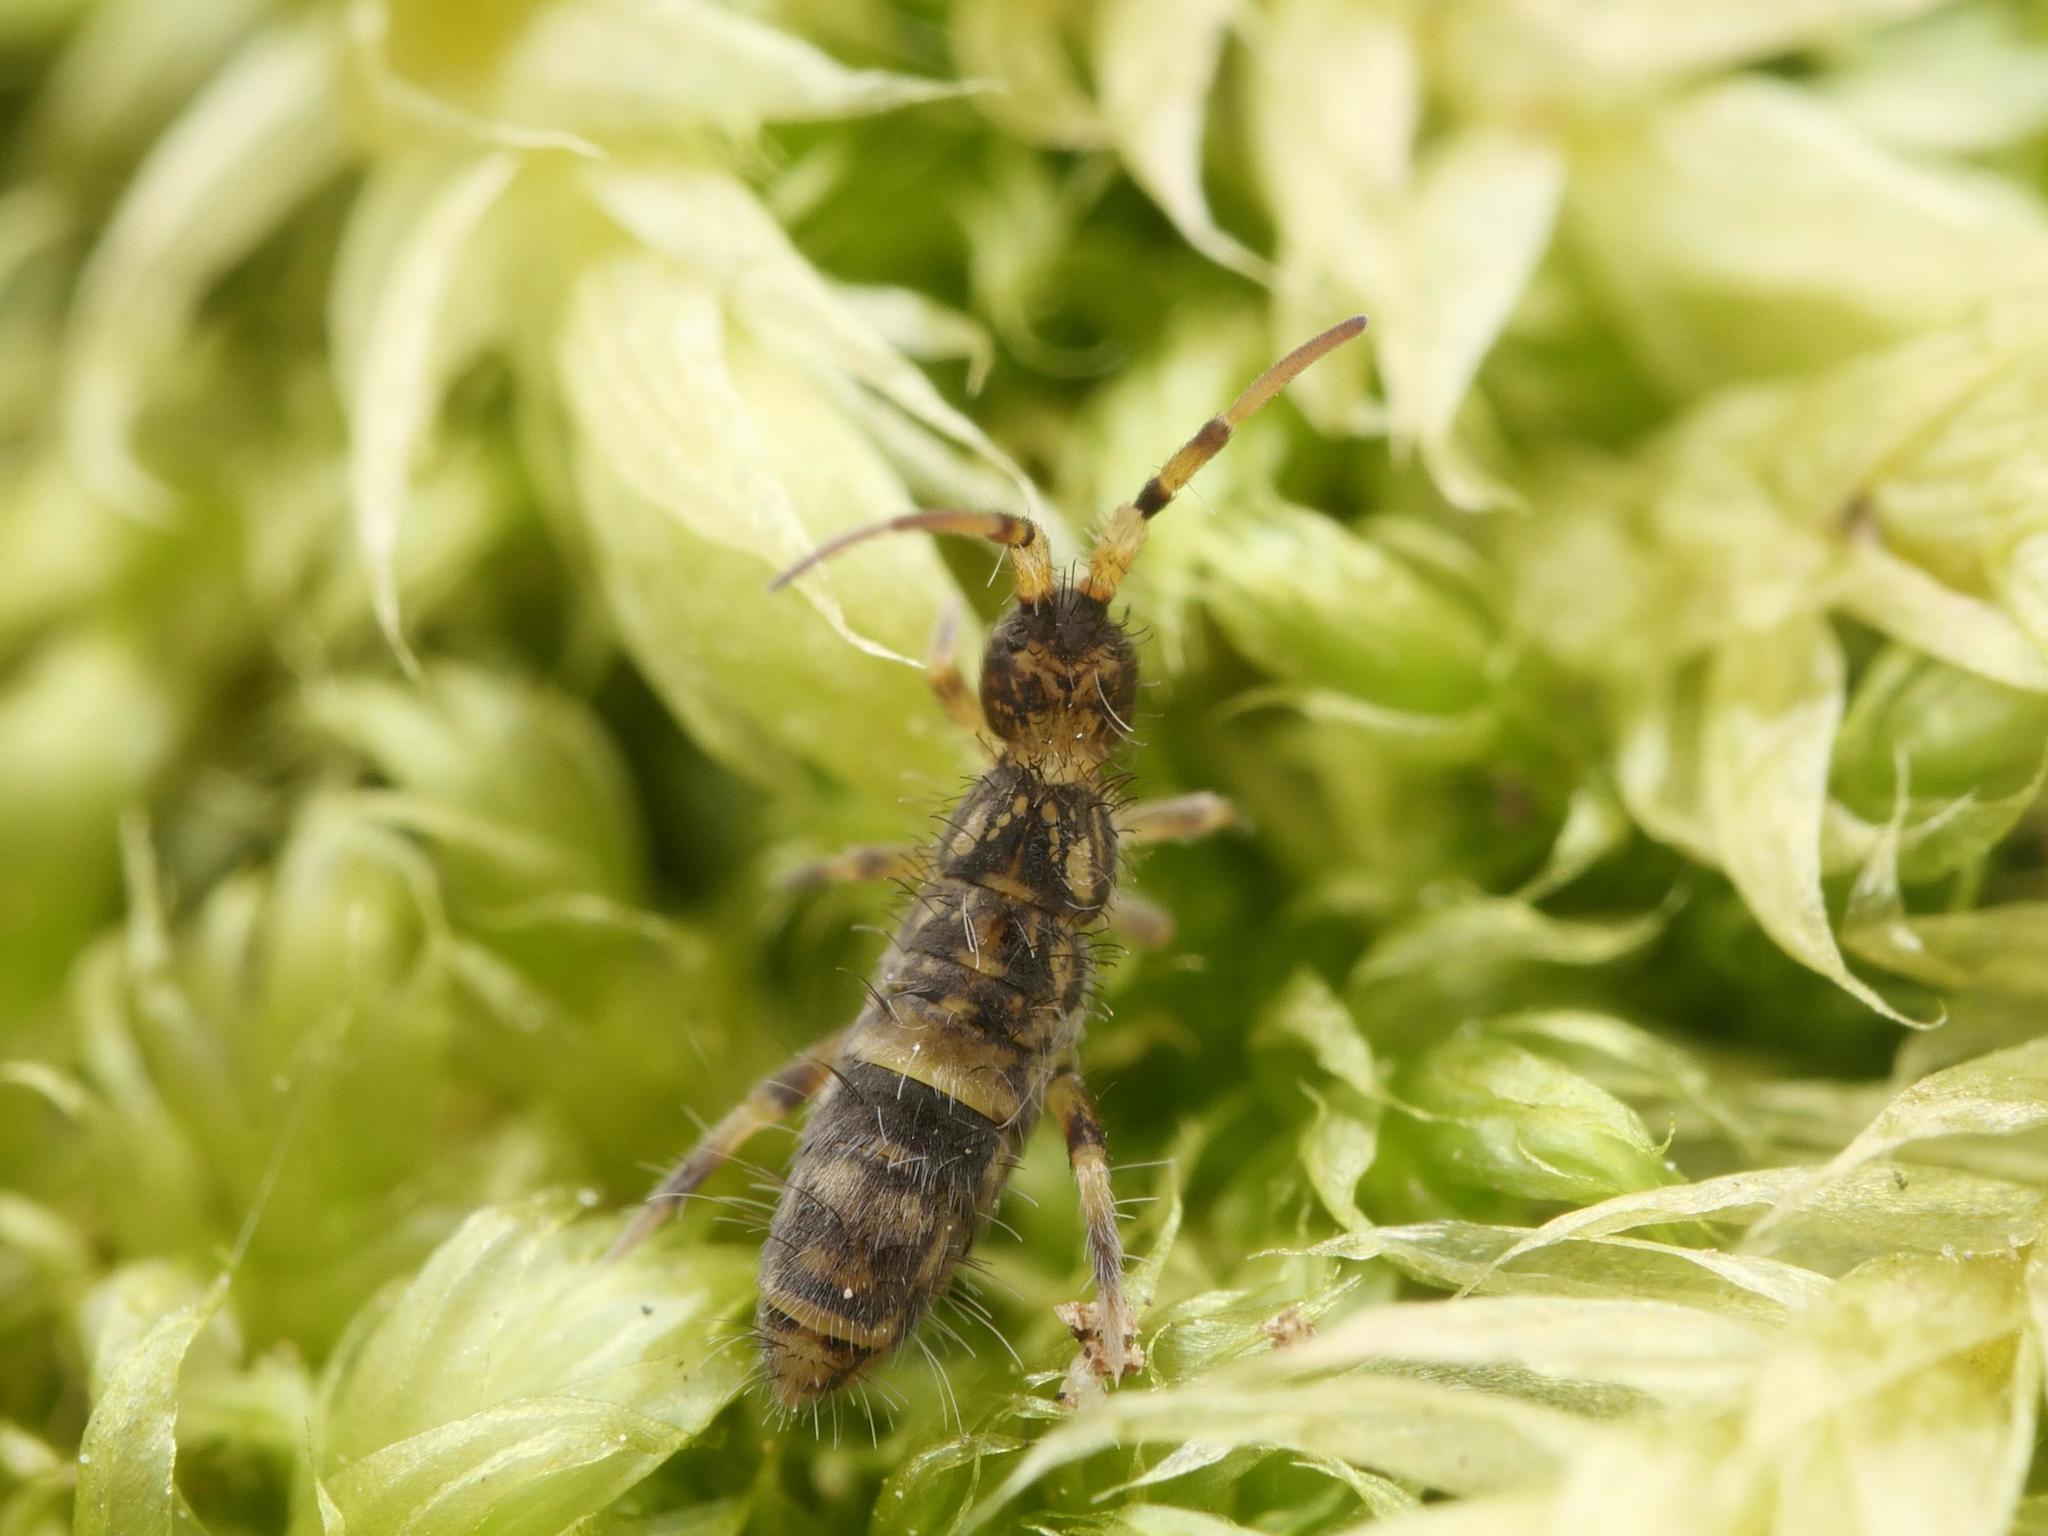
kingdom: Animalia
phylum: Arthropoda
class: Collembola
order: Entomobryomorpha
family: Orchesellidae
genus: Orchesella
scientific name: Orchesella cincta
